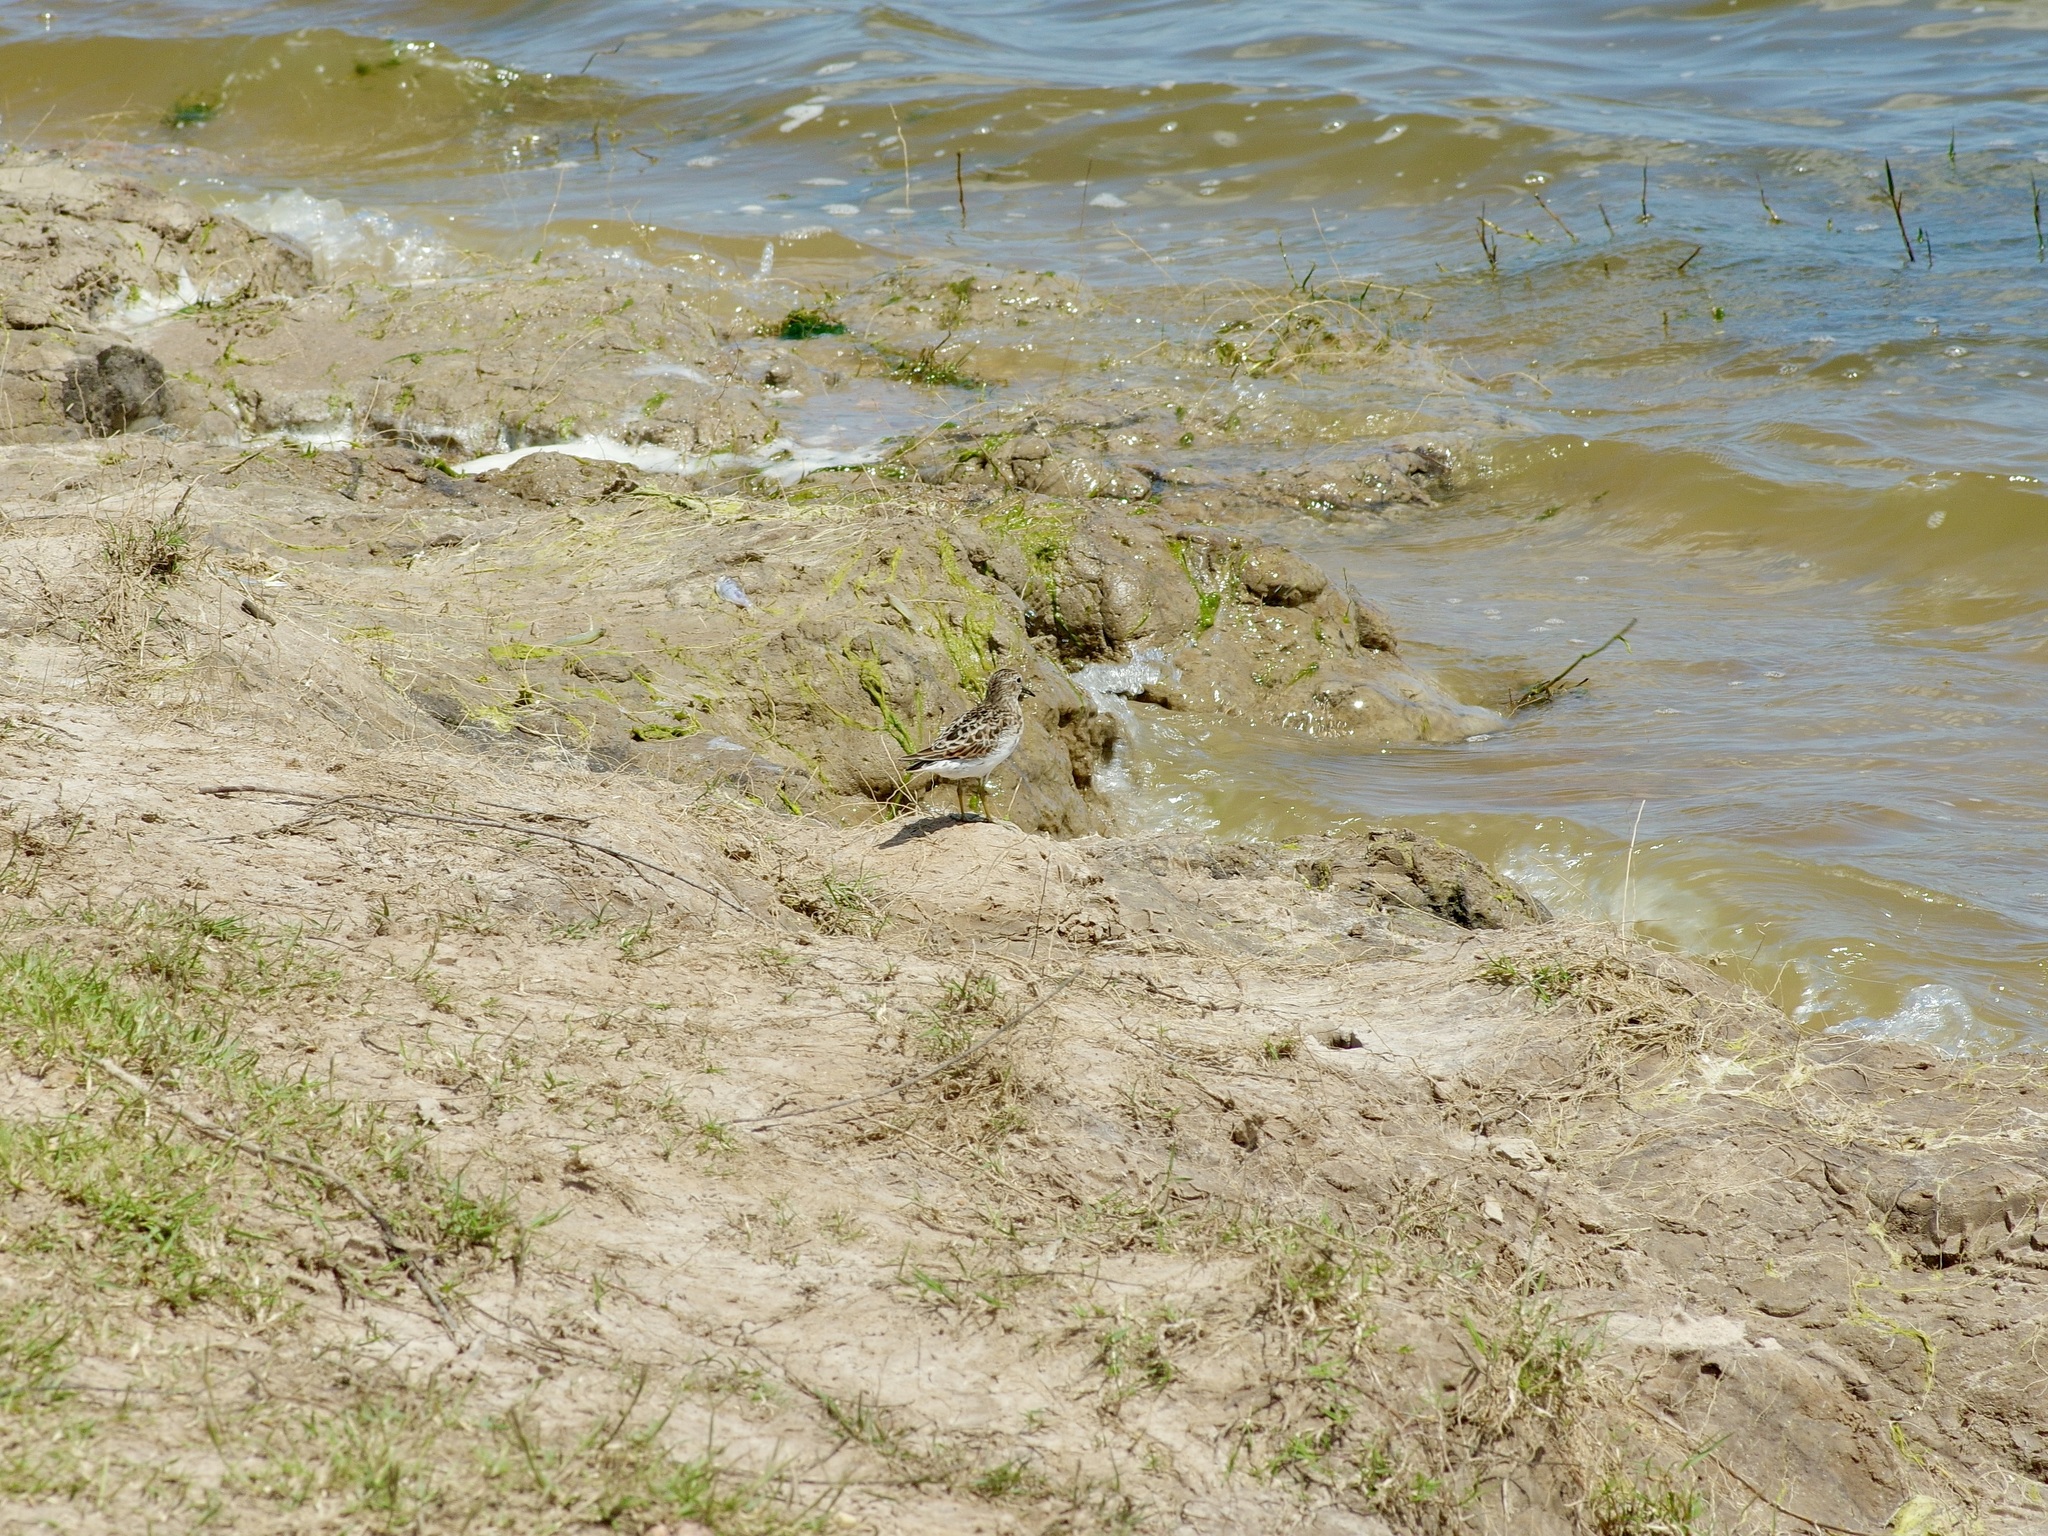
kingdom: Animalia
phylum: Chordata
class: Aves
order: Charadriiformes
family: Scolopacidae
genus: Calidris
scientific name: Calidris minutilla
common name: Least sandpiper
